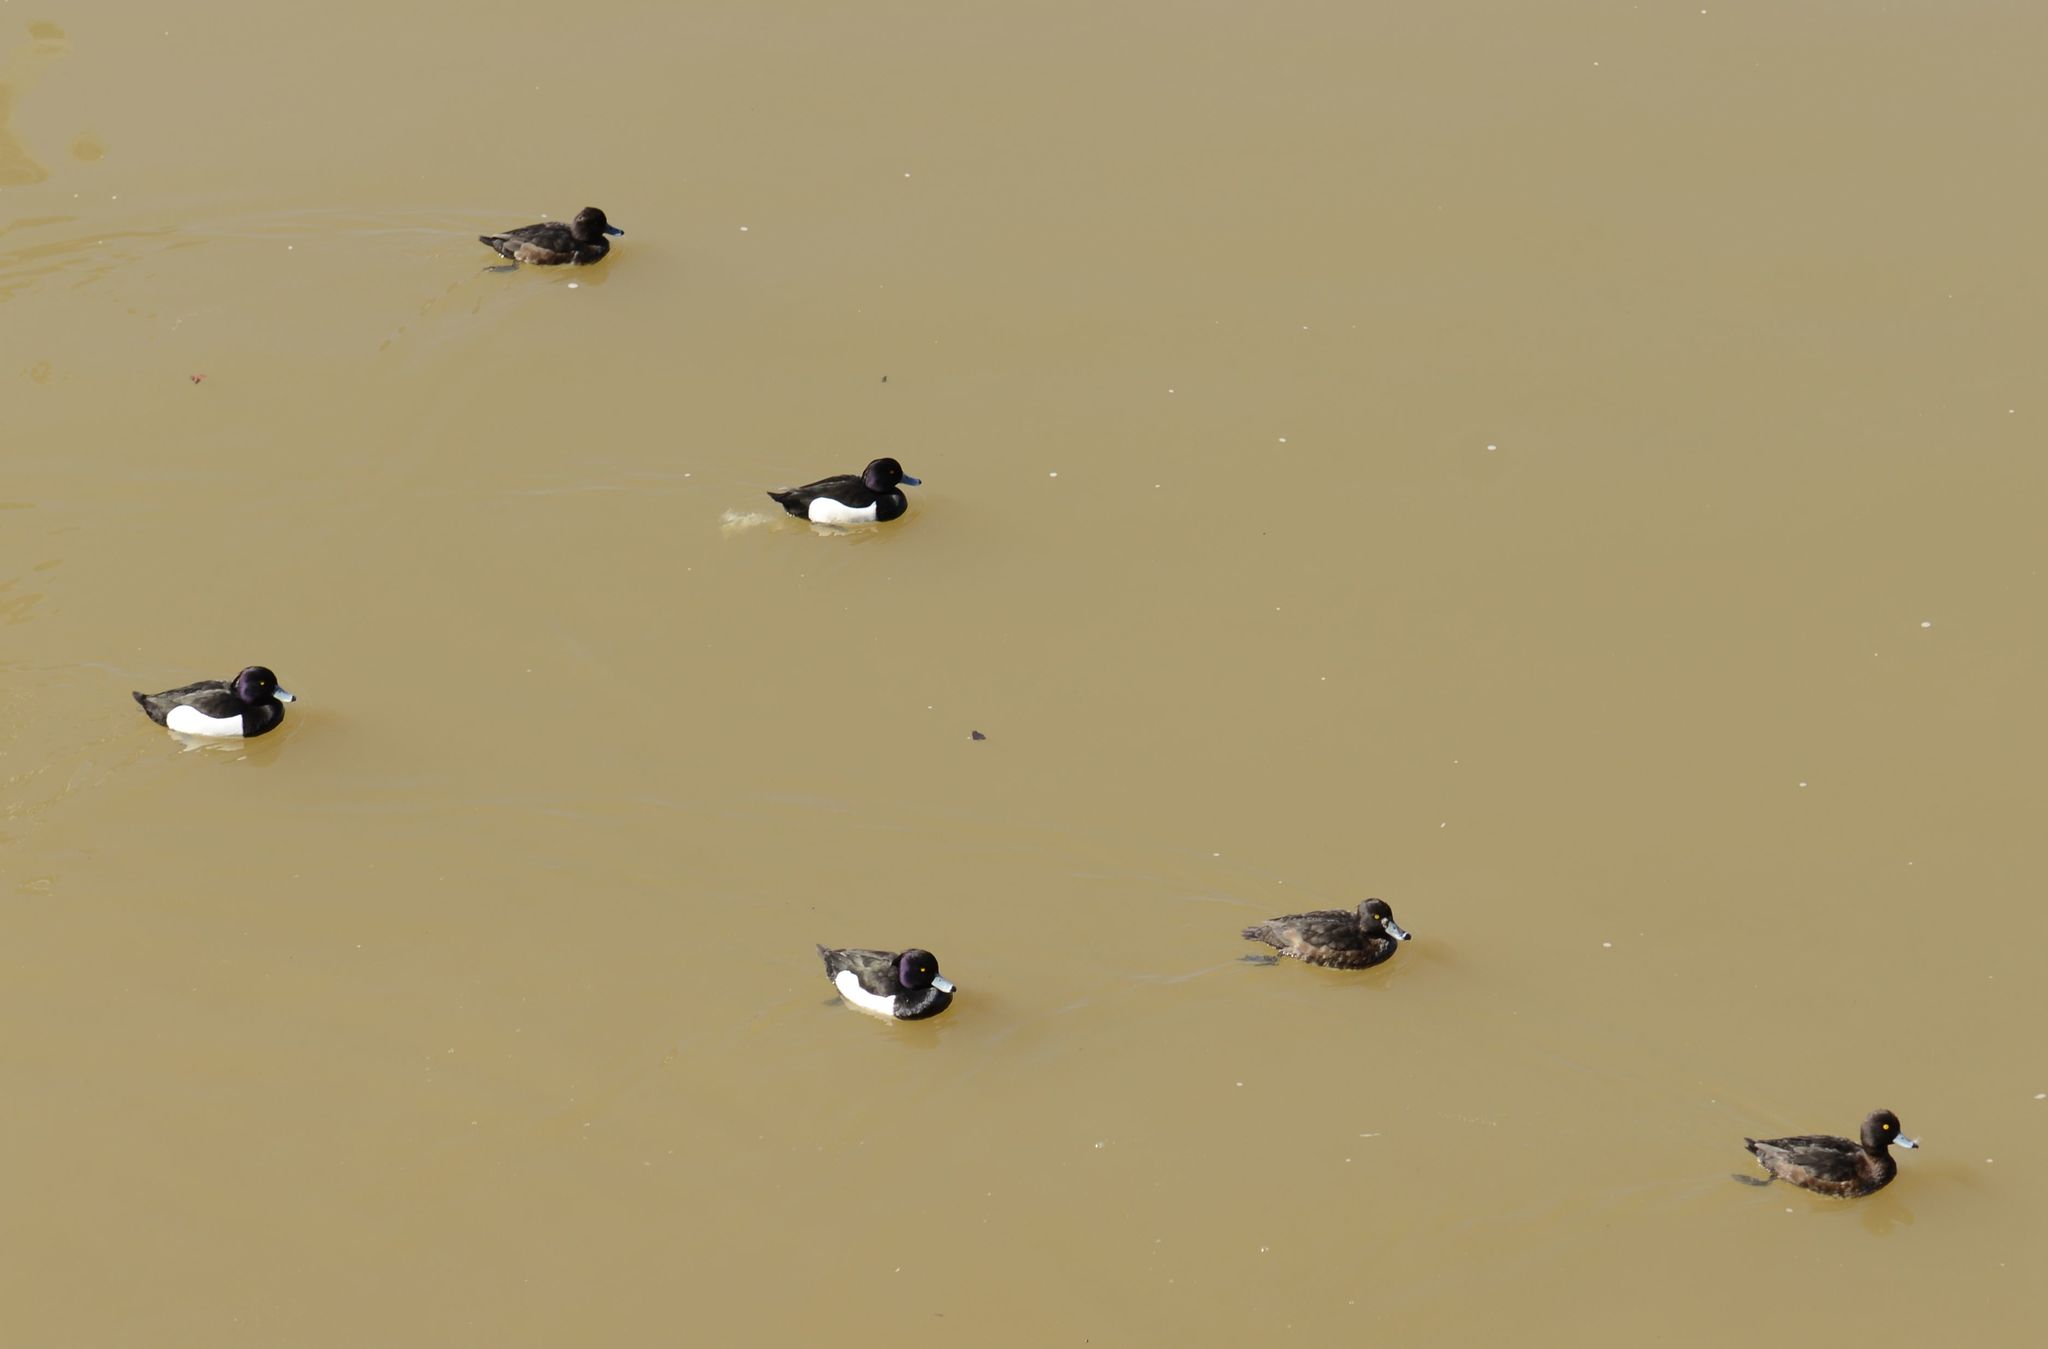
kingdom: Animalia
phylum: Chordata
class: Aves
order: Anseriformes
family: Anatidae
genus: Aythya
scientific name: Aythya fuligula
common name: Tufted duck
